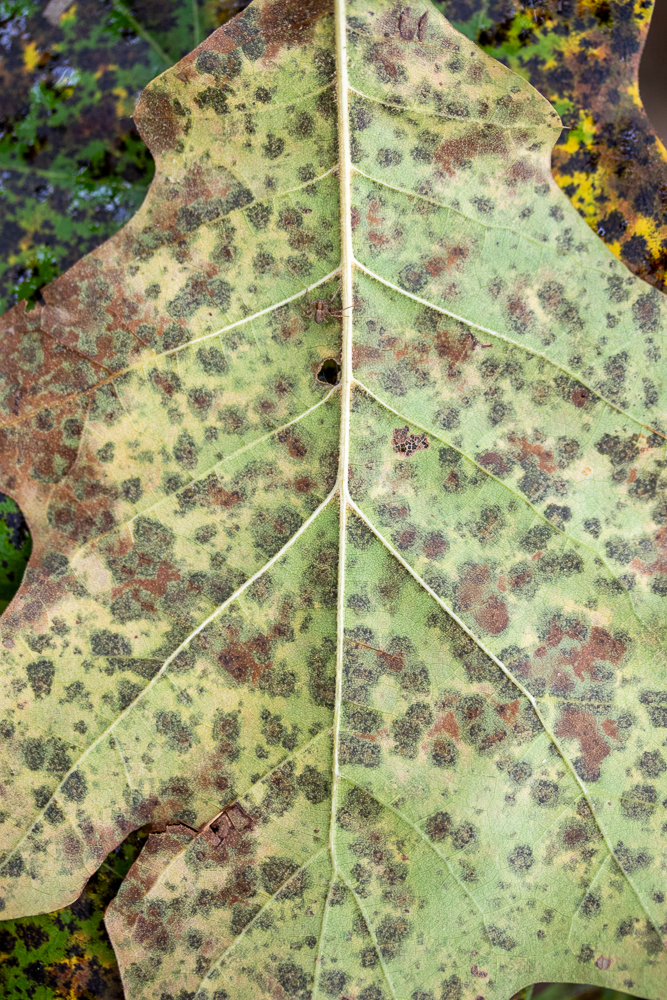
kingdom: Fungi
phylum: Ascomycota
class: Sordariomycetes
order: Diaporthales
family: Melanconidaceae
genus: Dicarpella
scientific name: Dicarpella dryina
